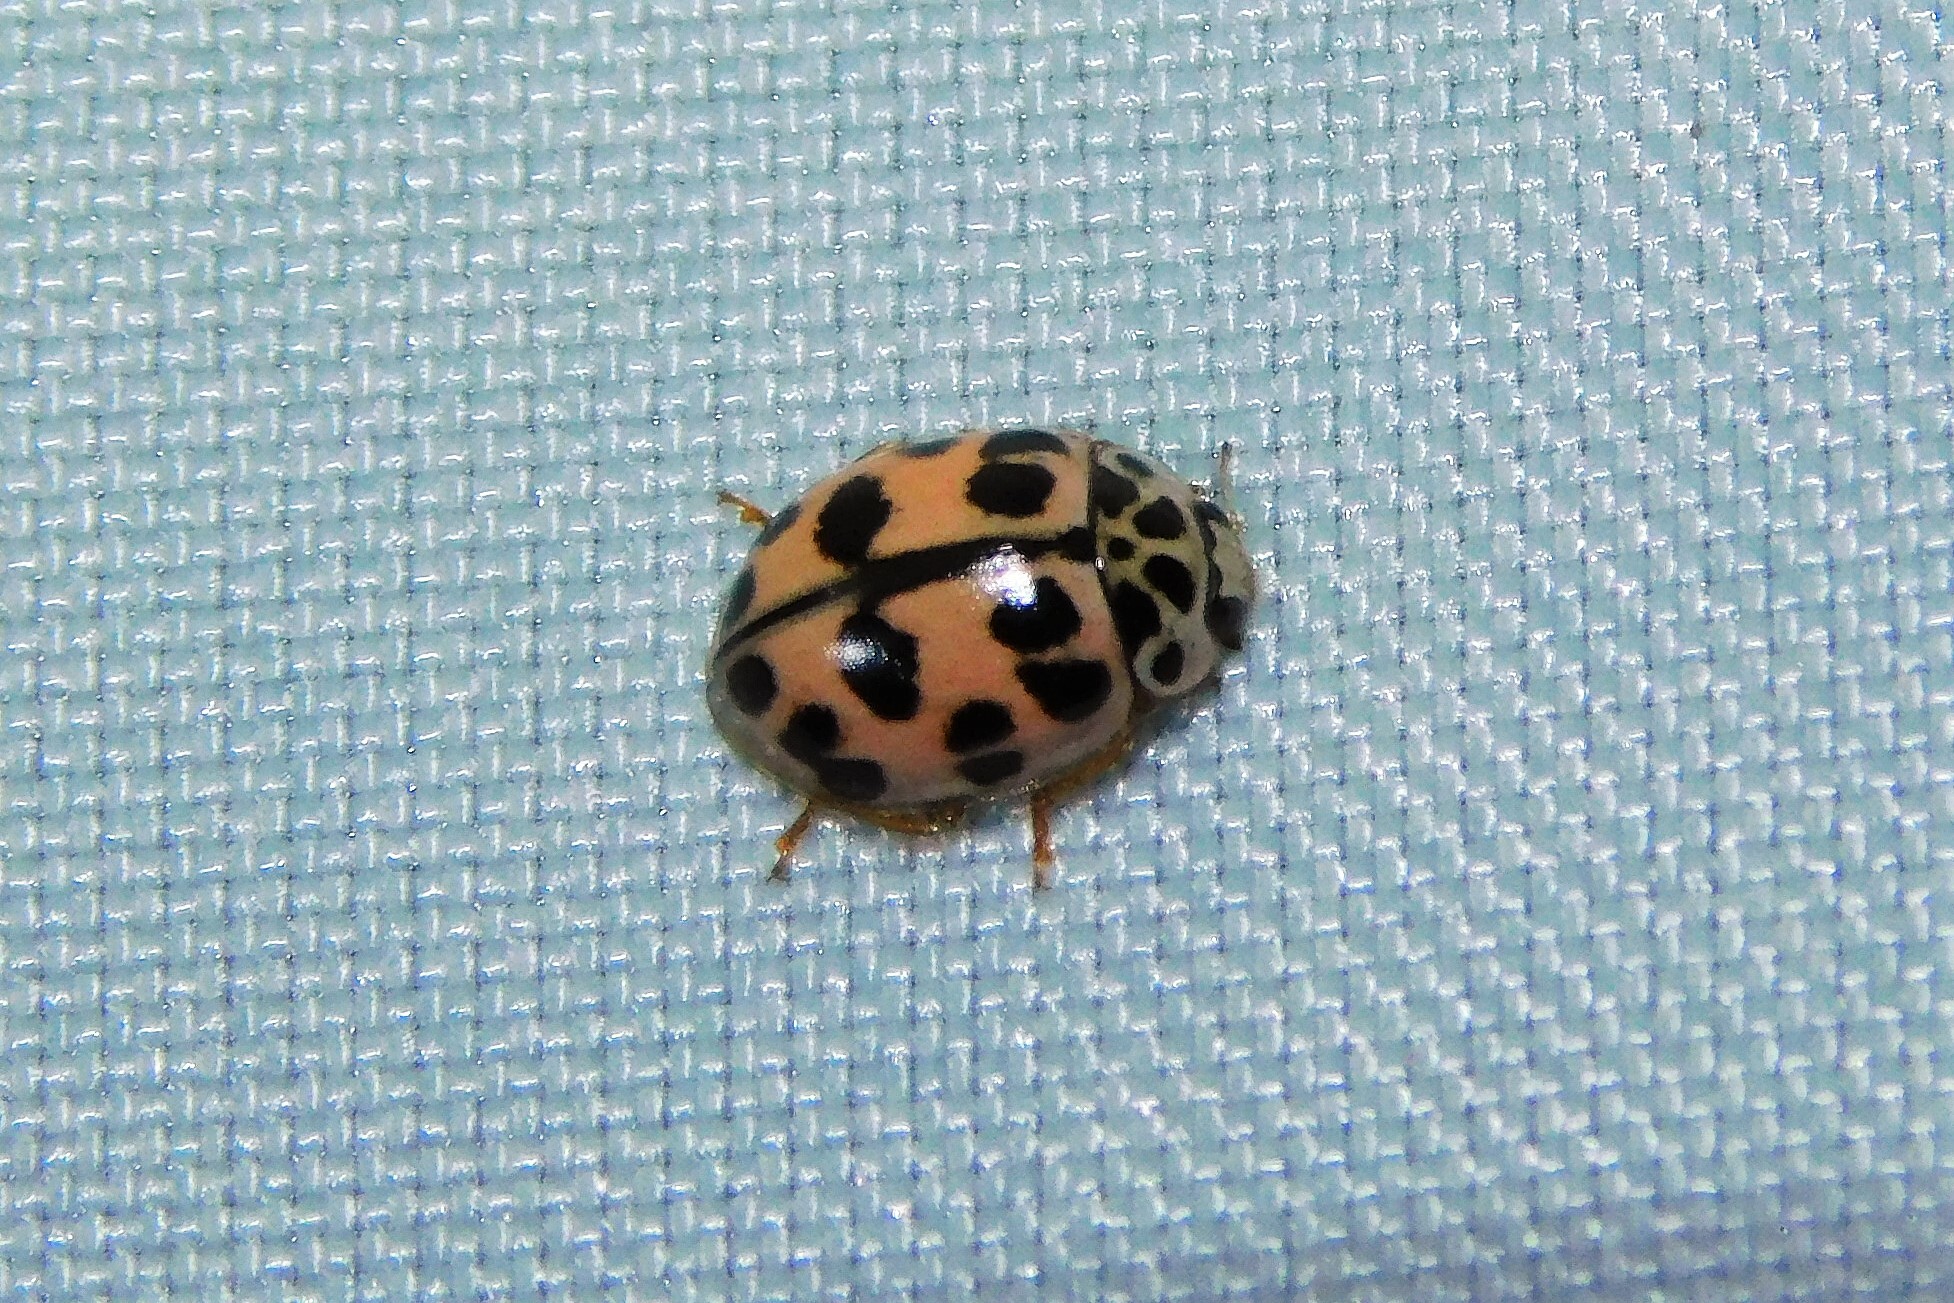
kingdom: Animalia
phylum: Arthropoda
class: Insecta
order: Coleoptera
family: Coccinellidae
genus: Oenopia
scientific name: Oenopia conglobata
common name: Ladybird beetle
